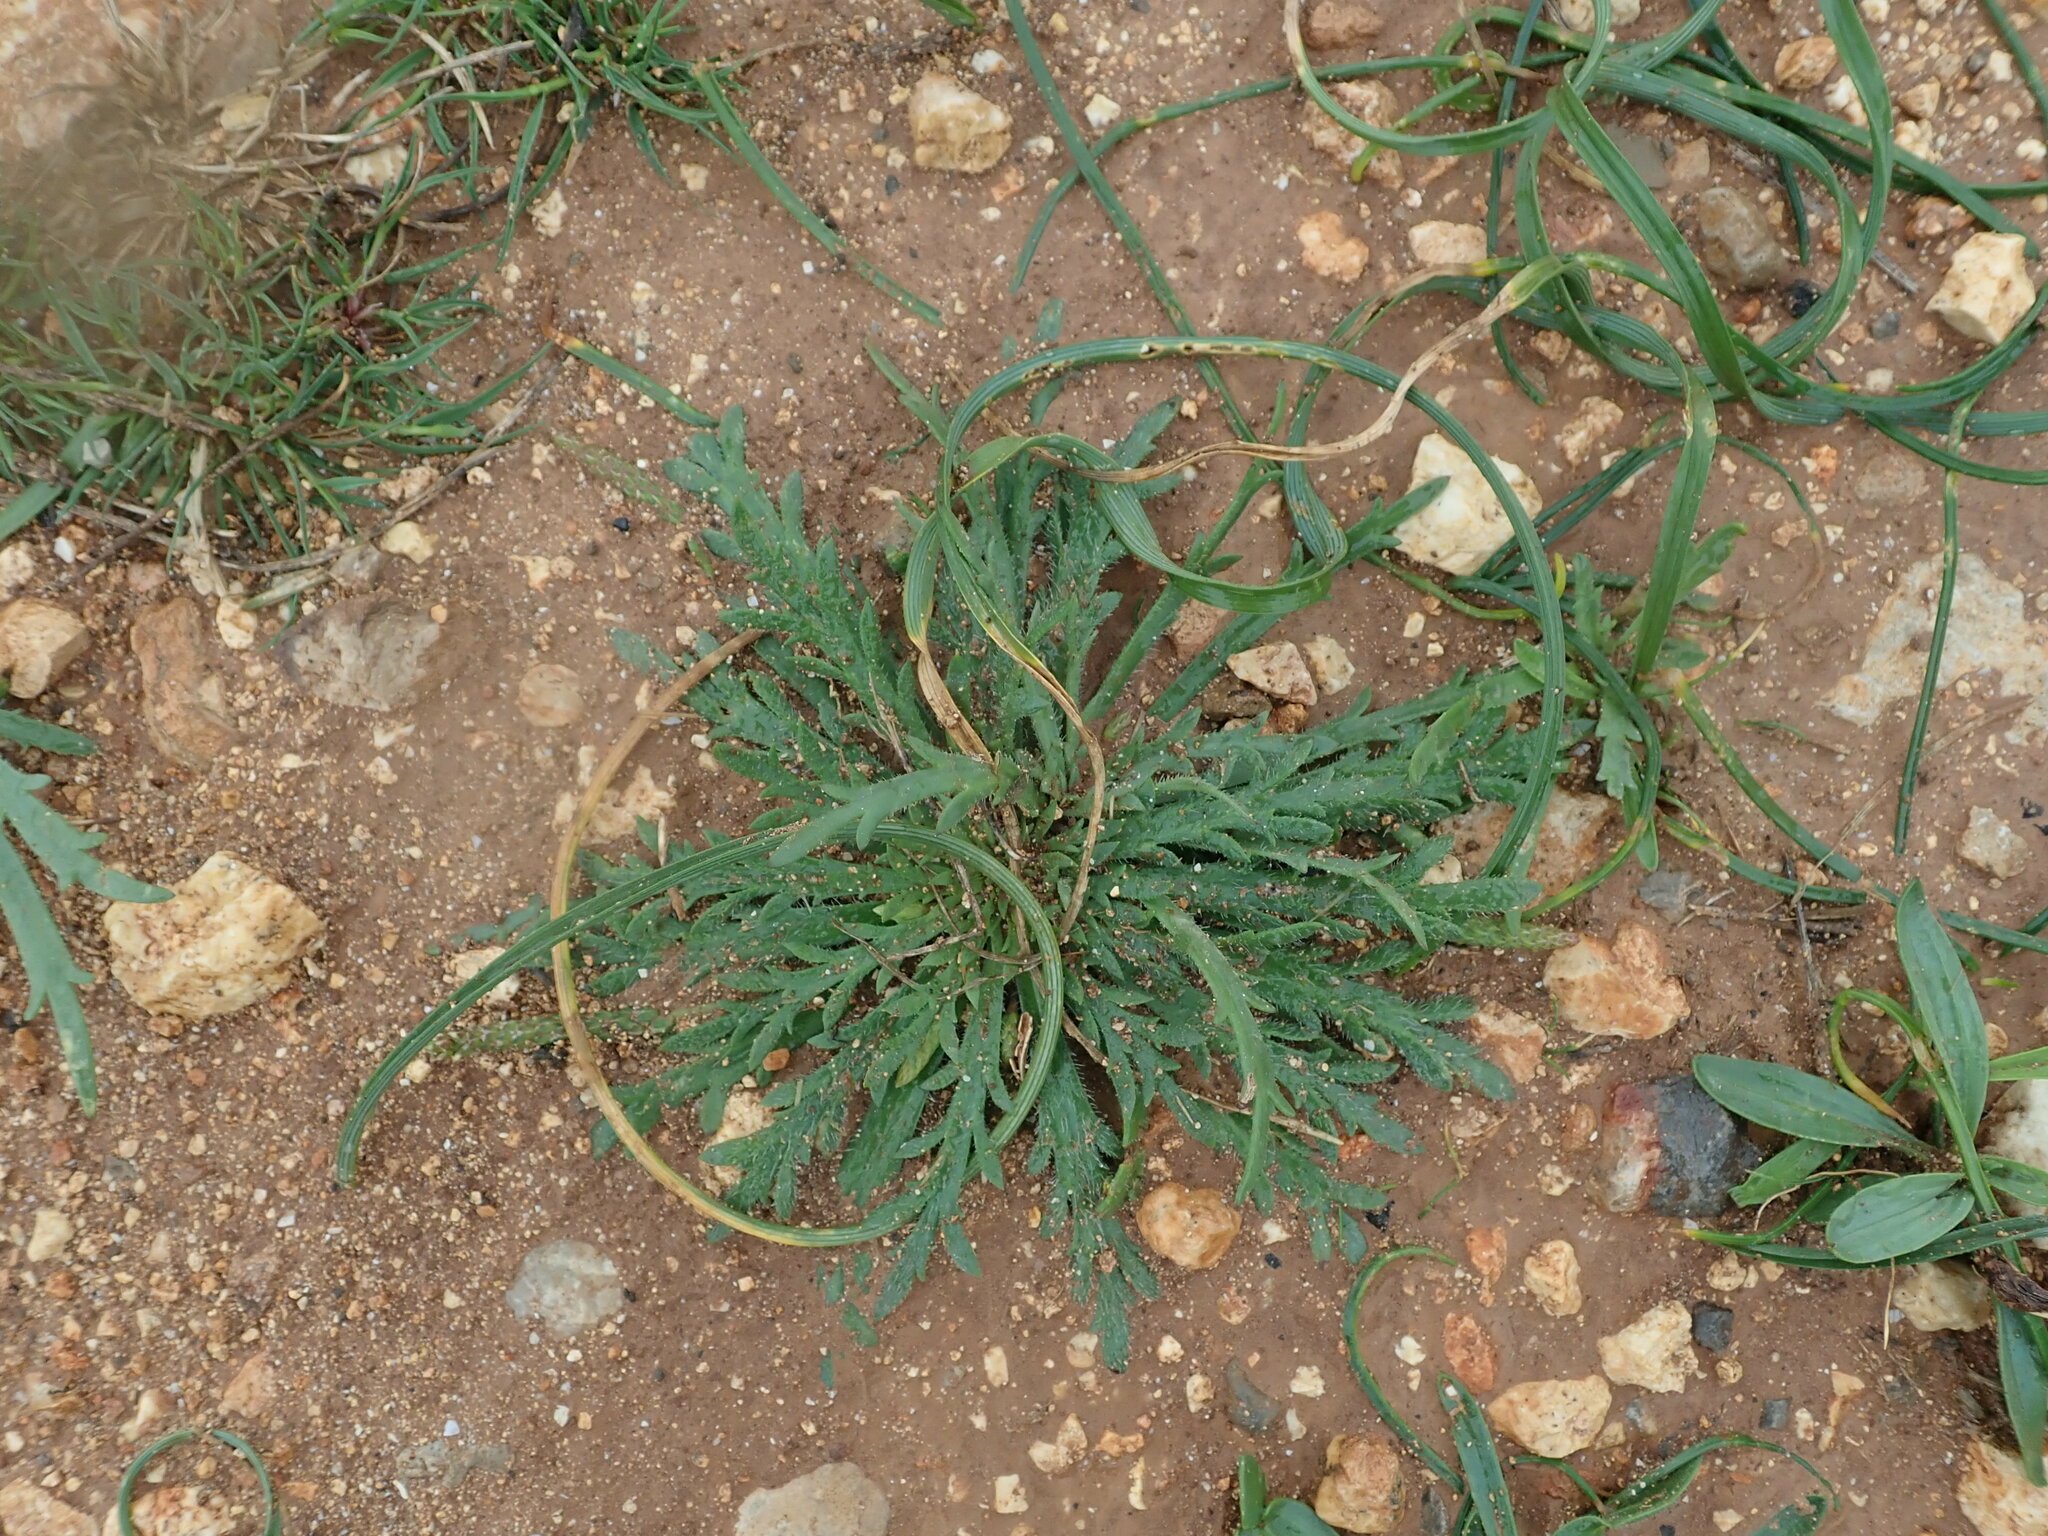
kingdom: Plantae
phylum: Tracheophyta
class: Magnoliopsida
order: Lamiales
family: Plantaginaceae
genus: Plantago
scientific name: Plantago coronopus
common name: Buck's-horn plantain
